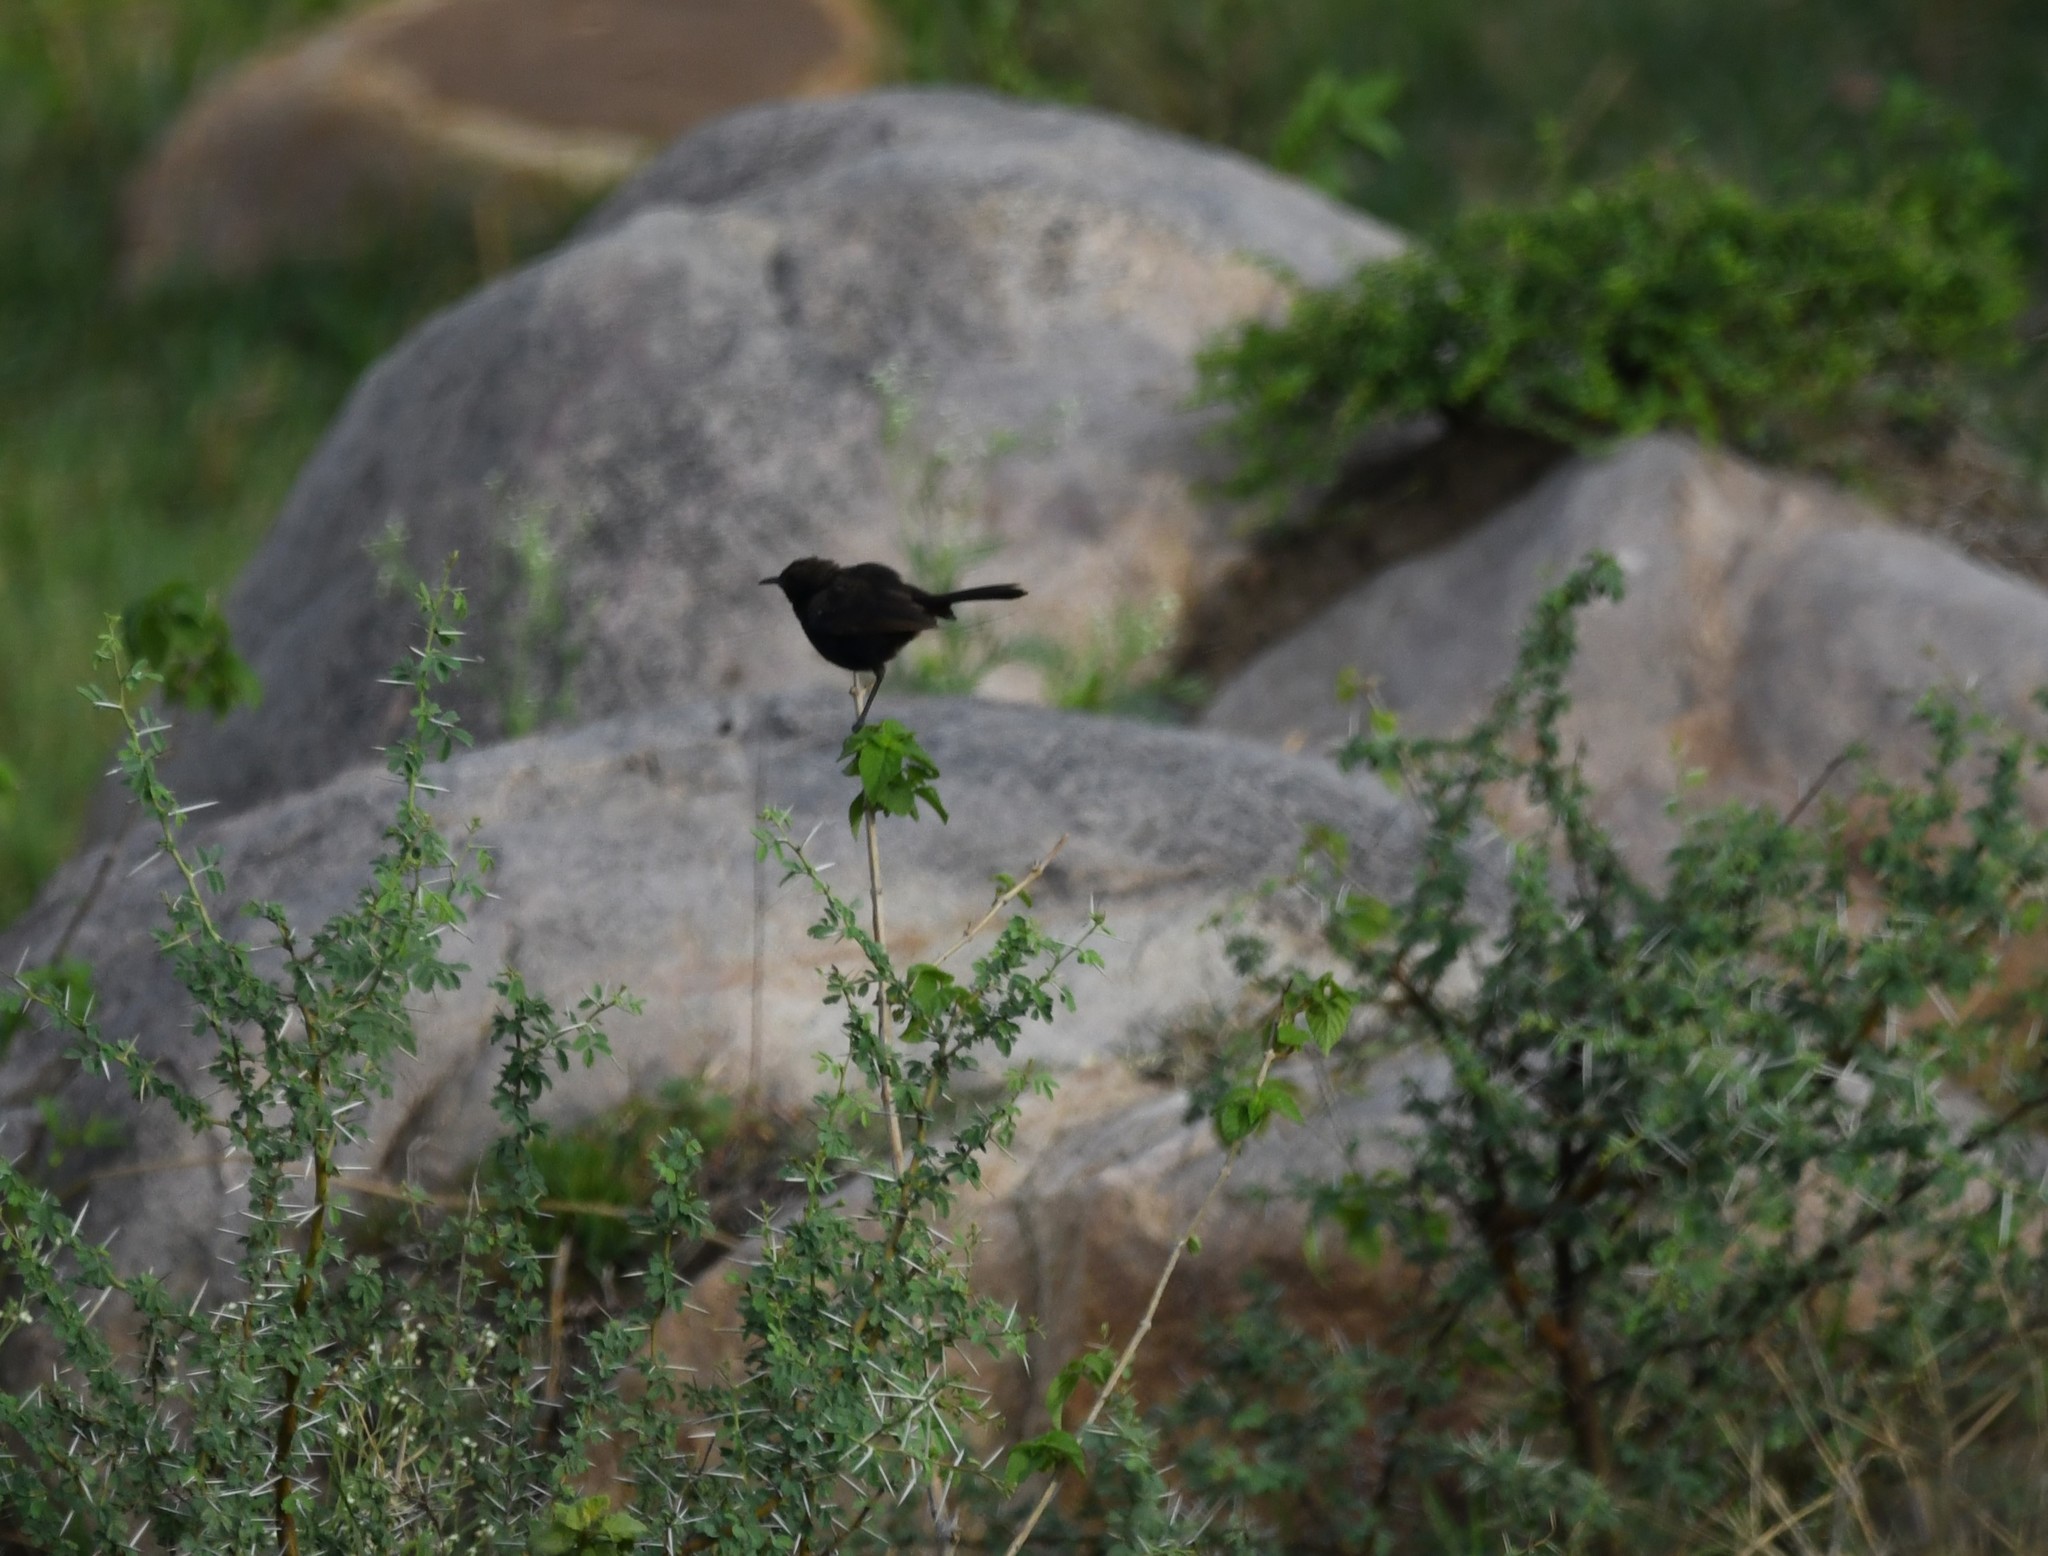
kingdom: Animalia
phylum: Chordata
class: Aves
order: Passeriformes
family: Muscicapidae
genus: Saxicoloides
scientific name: Saxicoloides fulicatus
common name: Indian robin
